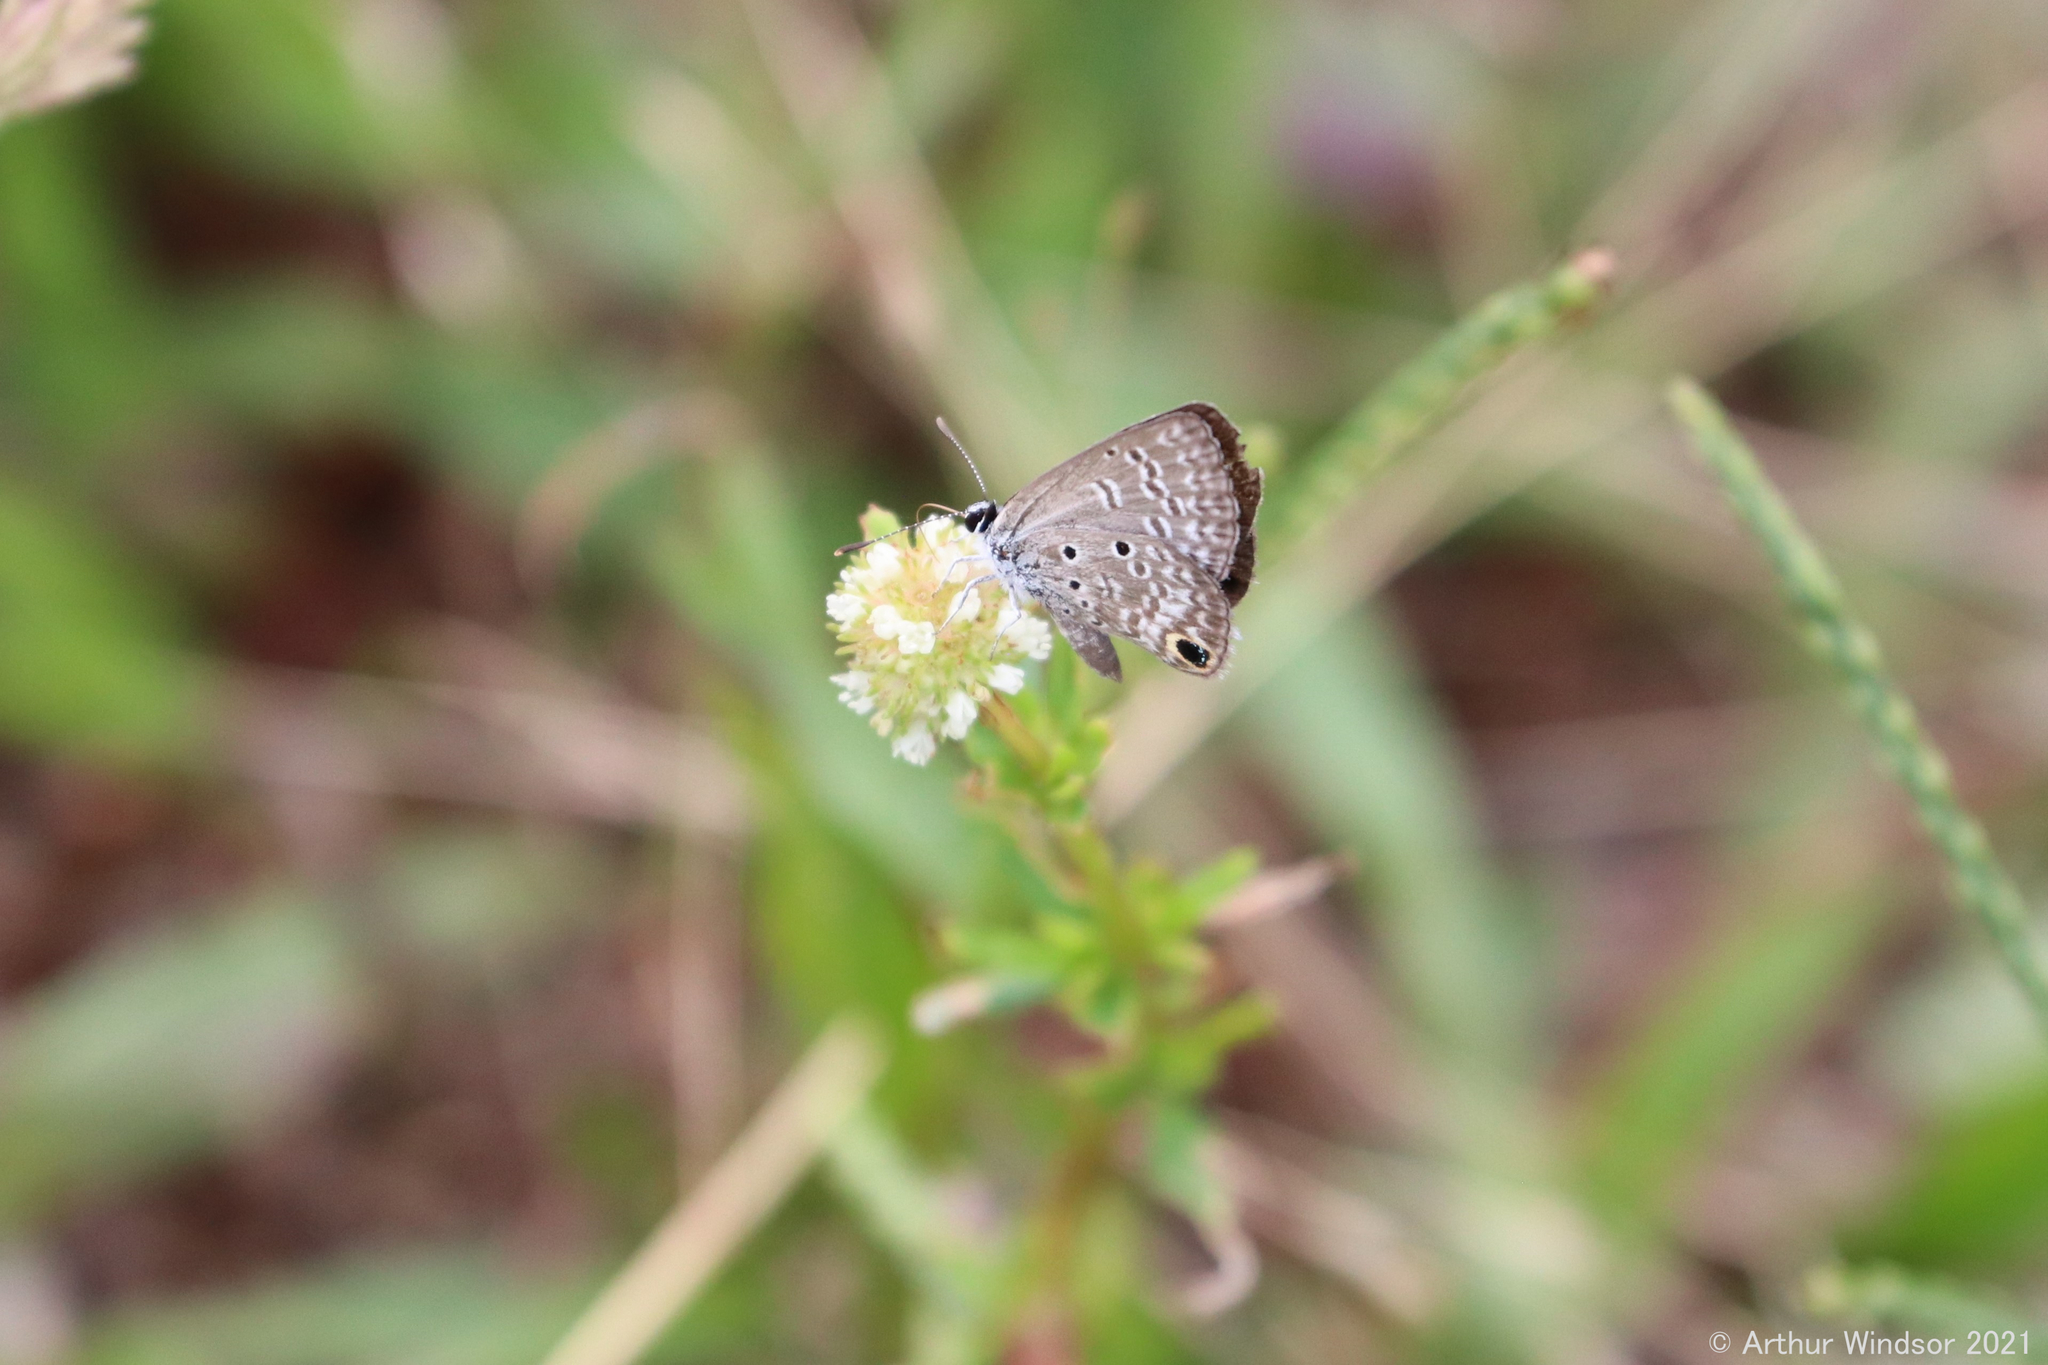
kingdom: Animalia
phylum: Arthropoda
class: Insecta
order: Lepidoptera
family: Lycaenidae
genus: Hemiargus
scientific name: Hemiargus ceraunus
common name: Ceraunus blue
